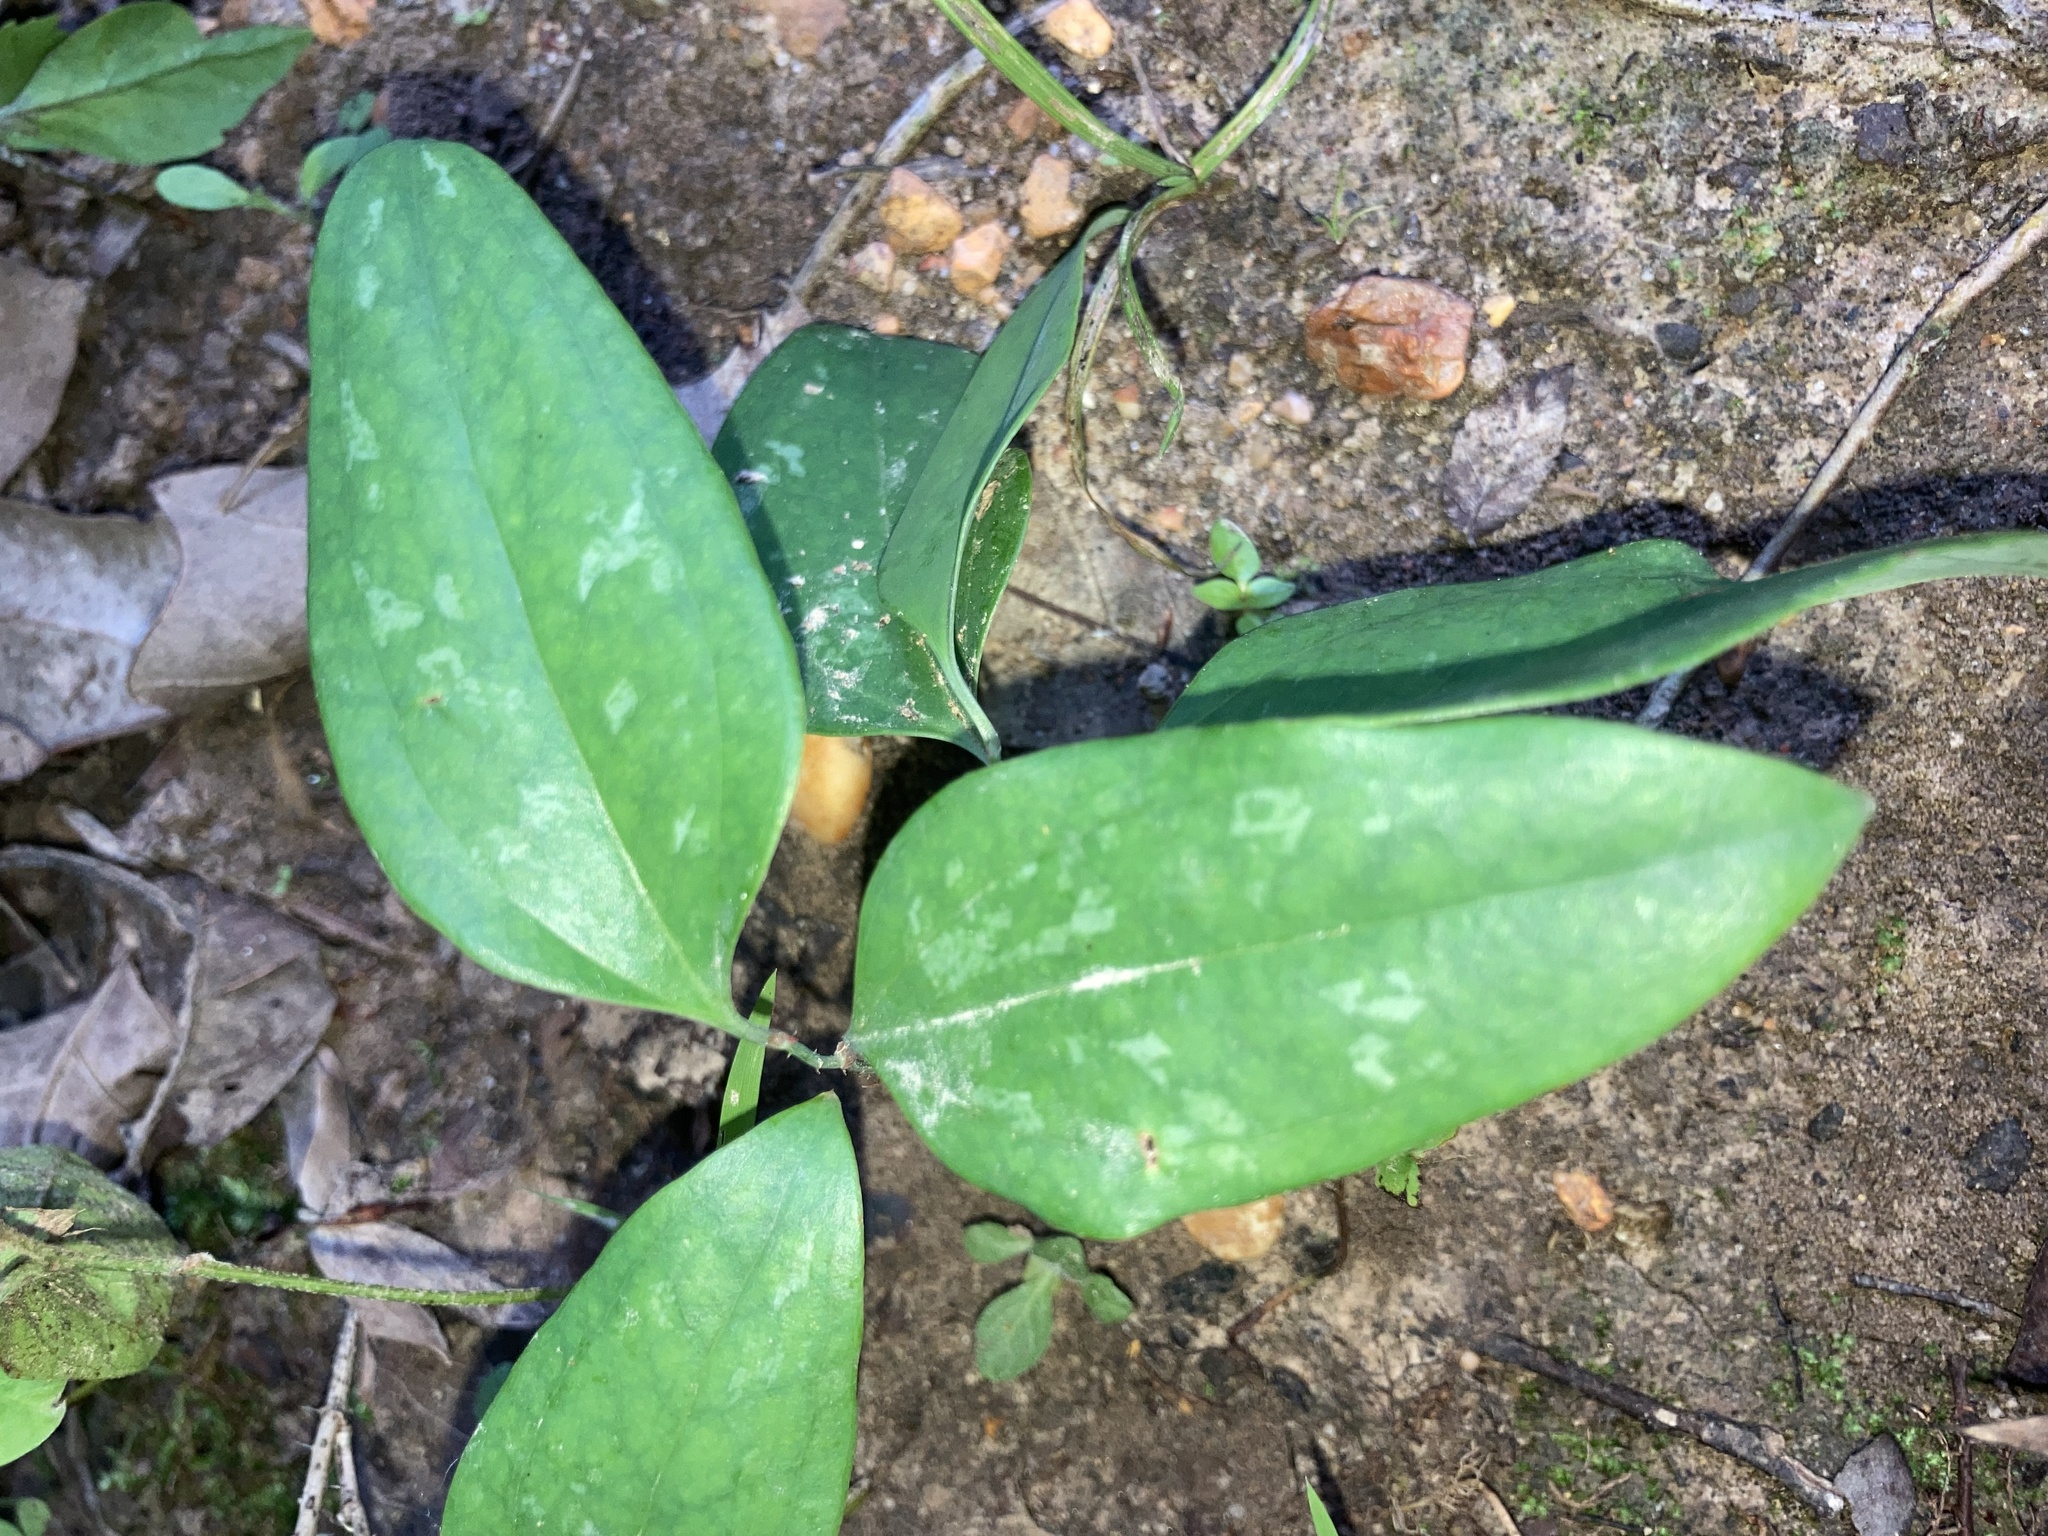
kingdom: Plantae
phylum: Tracheophyta
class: Liliopsida
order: Liliales
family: Smilacaceae
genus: Smilax
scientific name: Smilax glauca
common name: Cat greenbrier
